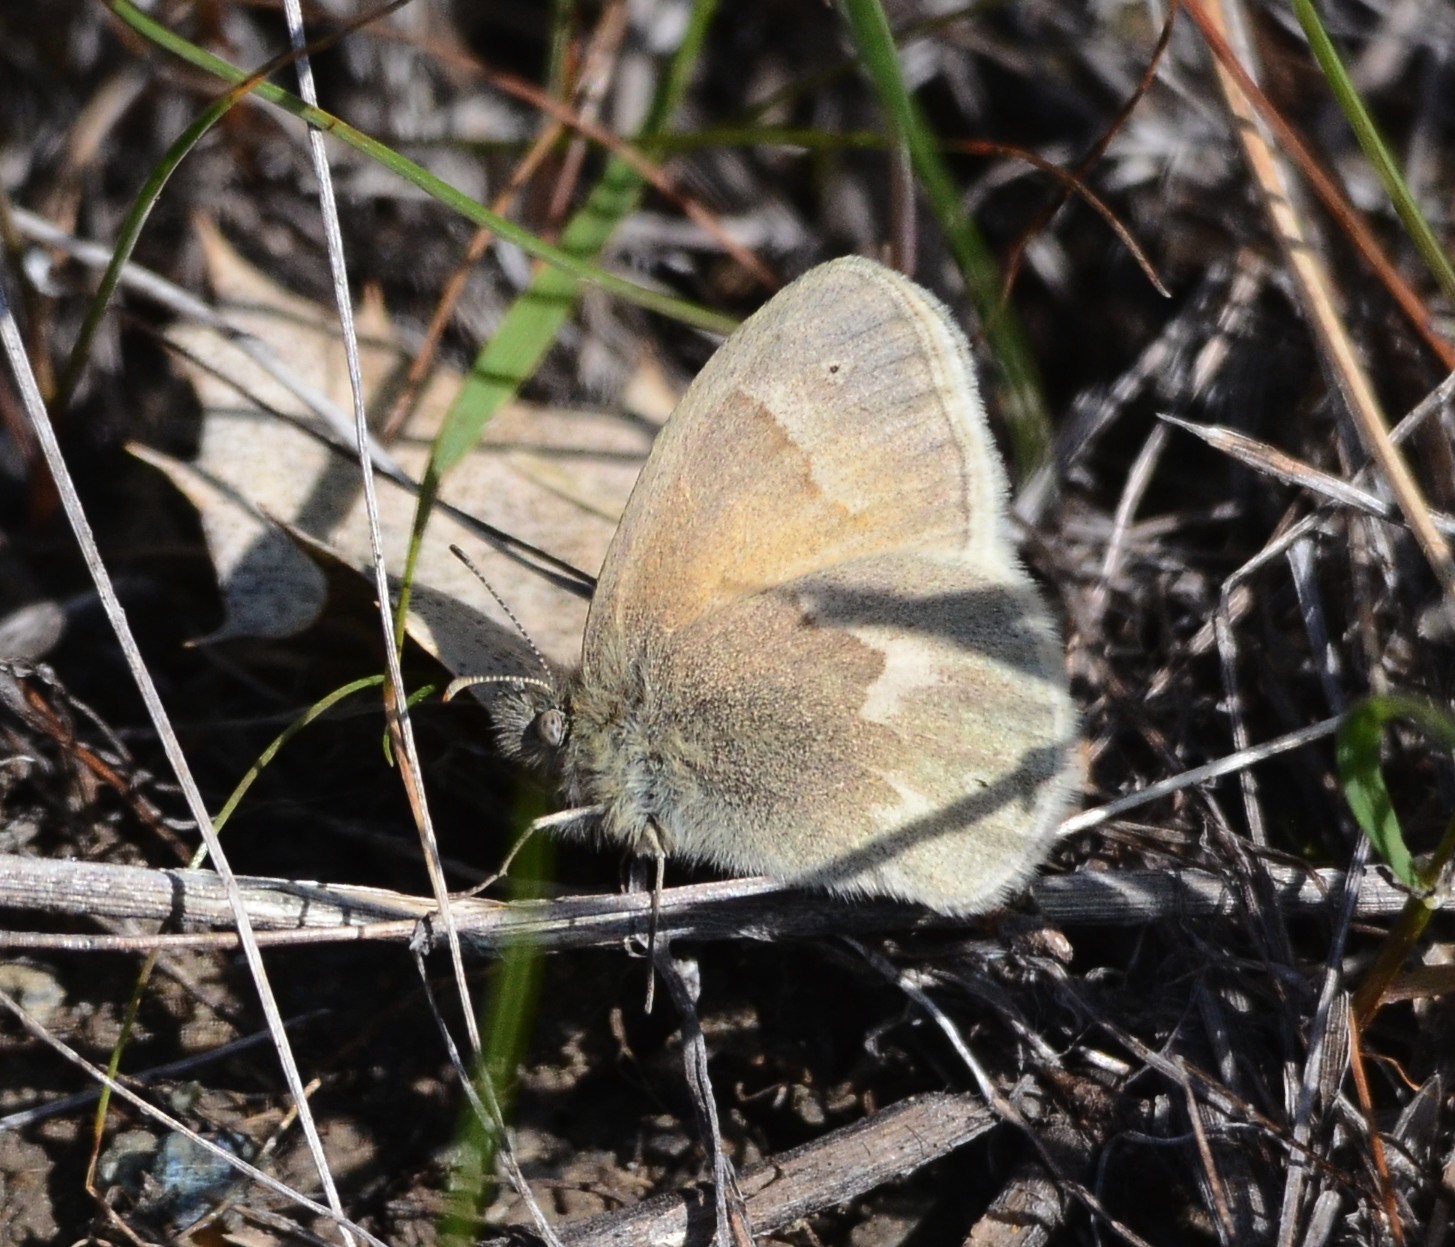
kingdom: Animalia
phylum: Arthropoda
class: Insecta
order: Lepidoptera
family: Nymphalidae
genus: Coenonympha
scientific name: Coenonympha california
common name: Common ringlet
